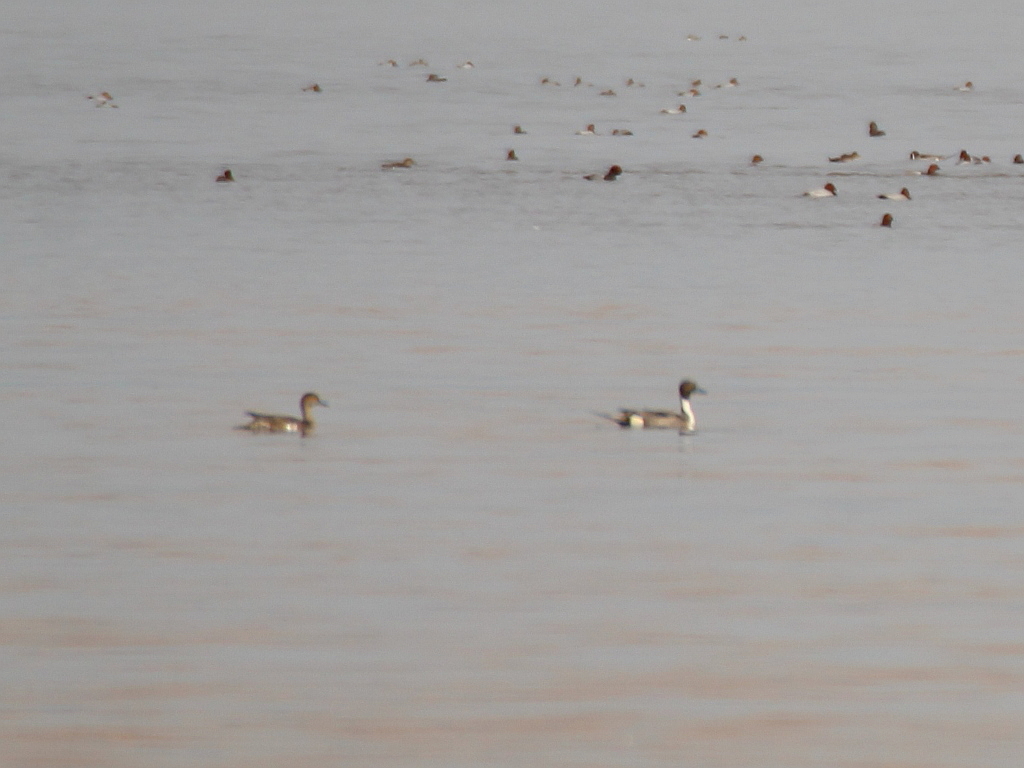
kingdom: Animalia
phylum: Chordata
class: Aves
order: Anseriformes
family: Anatidae
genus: Anas
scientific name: Anas acuta
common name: Northern pintail
